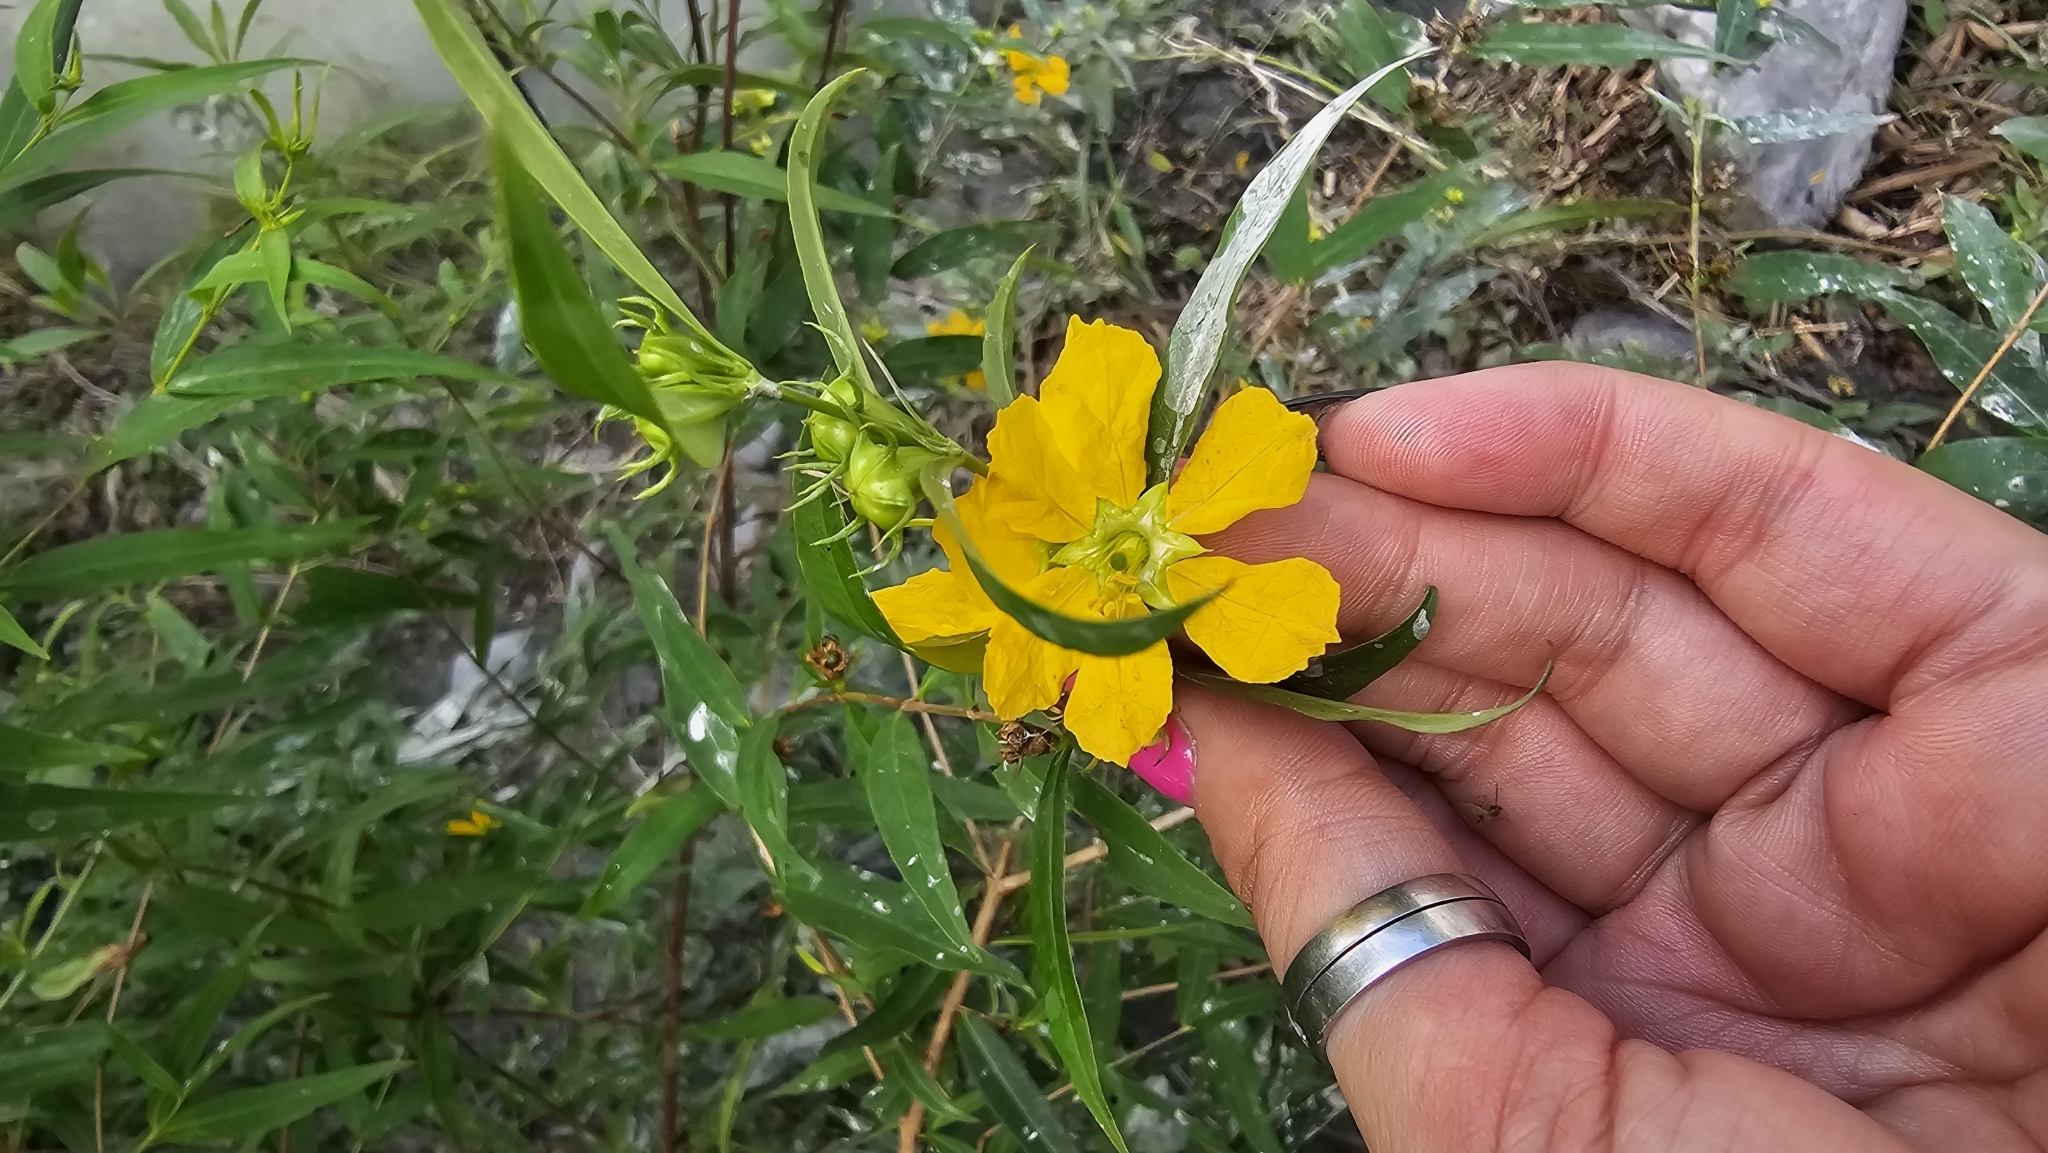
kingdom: Plantae
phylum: Tracheophyta
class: Magnoliopsida
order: Myrtales
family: Lythraceae
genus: Heimia
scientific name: Heimia salicifolia
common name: Willow-leaf heimia
